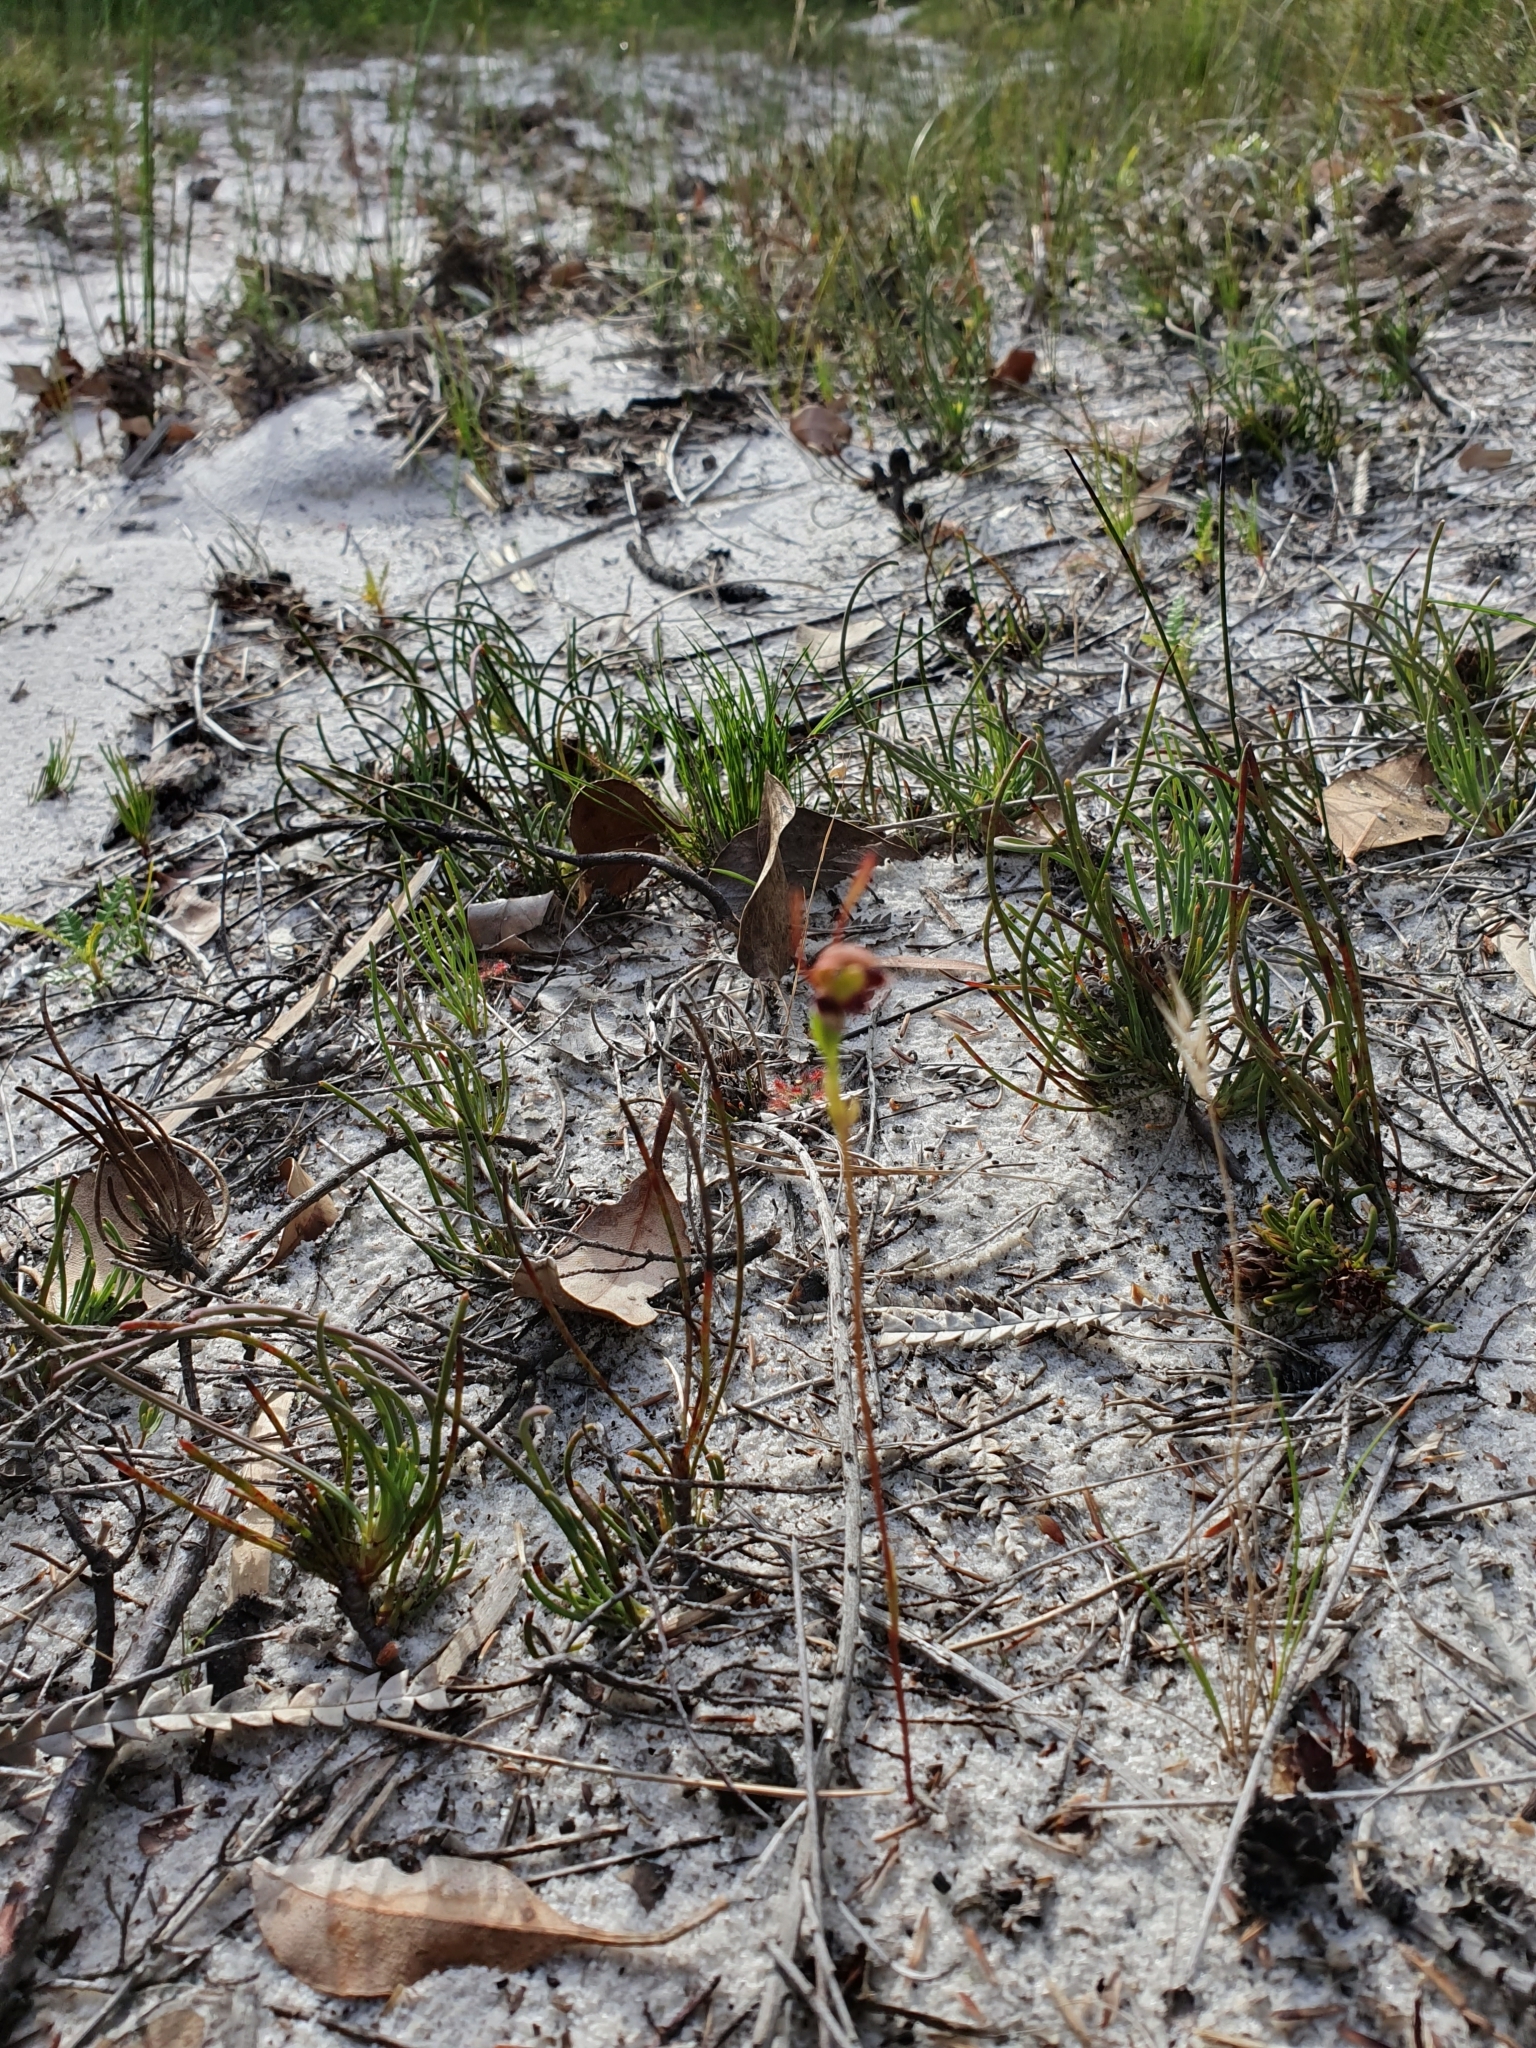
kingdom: Plantae
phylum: Tracheophyta
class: Liliopsida
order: Asparagales
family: Orchidaceae
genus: Leporella
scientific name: Leporella fimbriata
